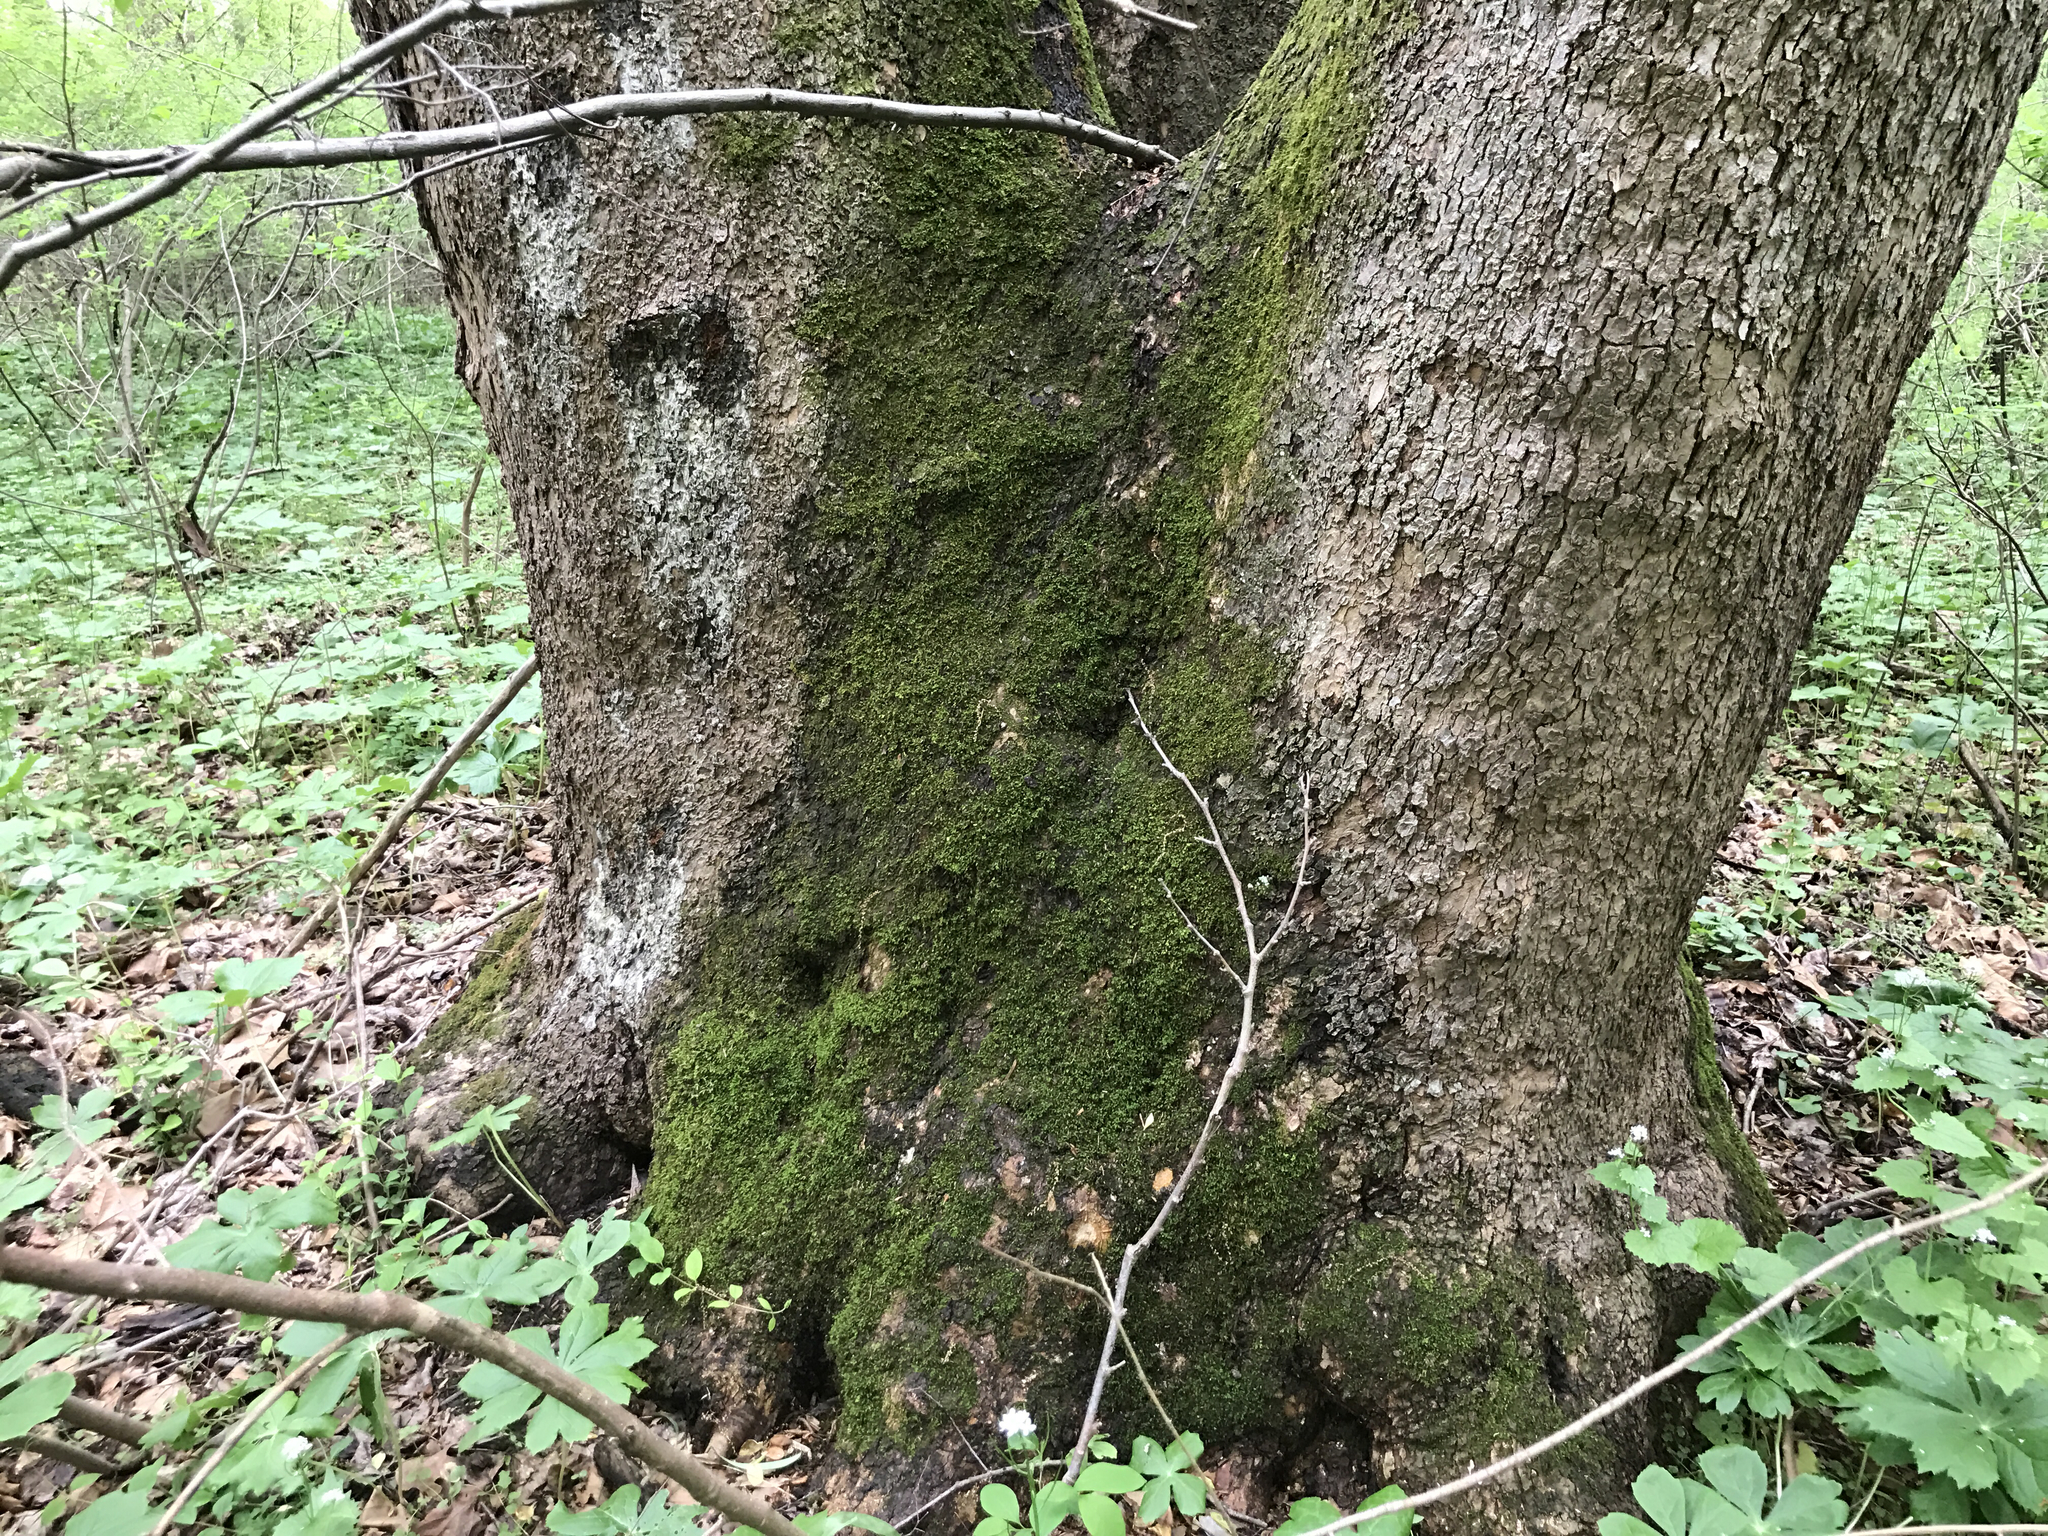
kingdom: Plantae
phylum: Tracheophyta
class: Magnoliopsida
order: Proteales
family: Platanaceae
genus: Platanus
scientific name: Platanus occidentalis
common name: American sycamore
